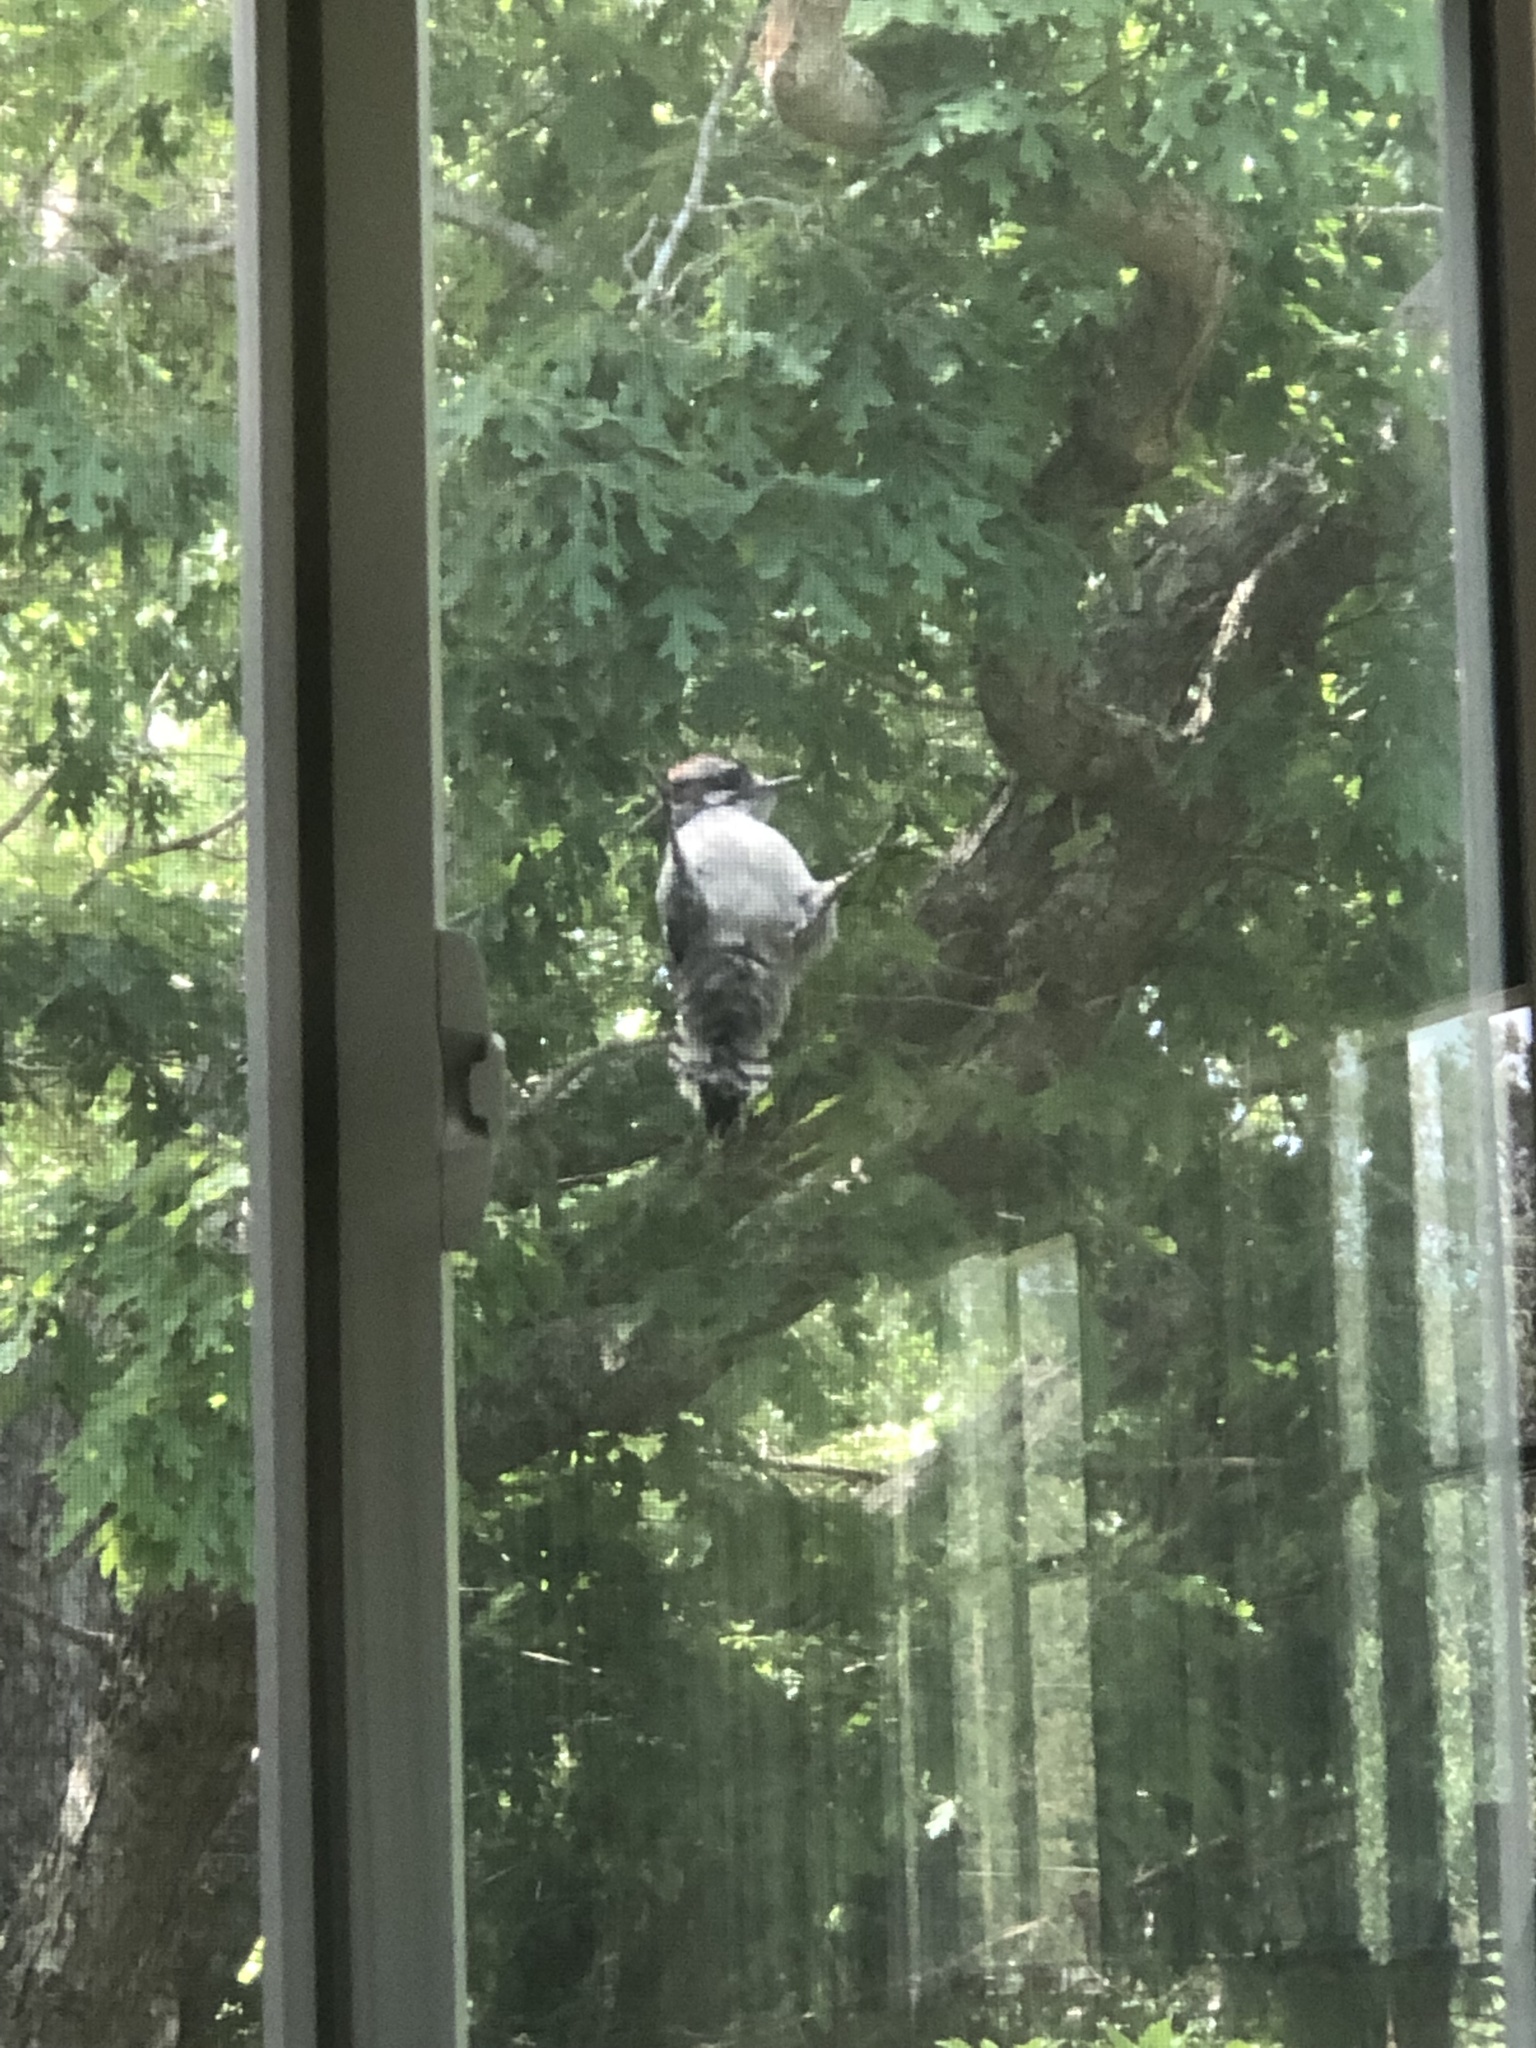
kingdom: Animalia
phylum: Chordata
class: Aves
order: Piciformes
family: Picidae
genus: Dryobates
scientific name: Dryobates pubescens
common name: Downy woodpecker
